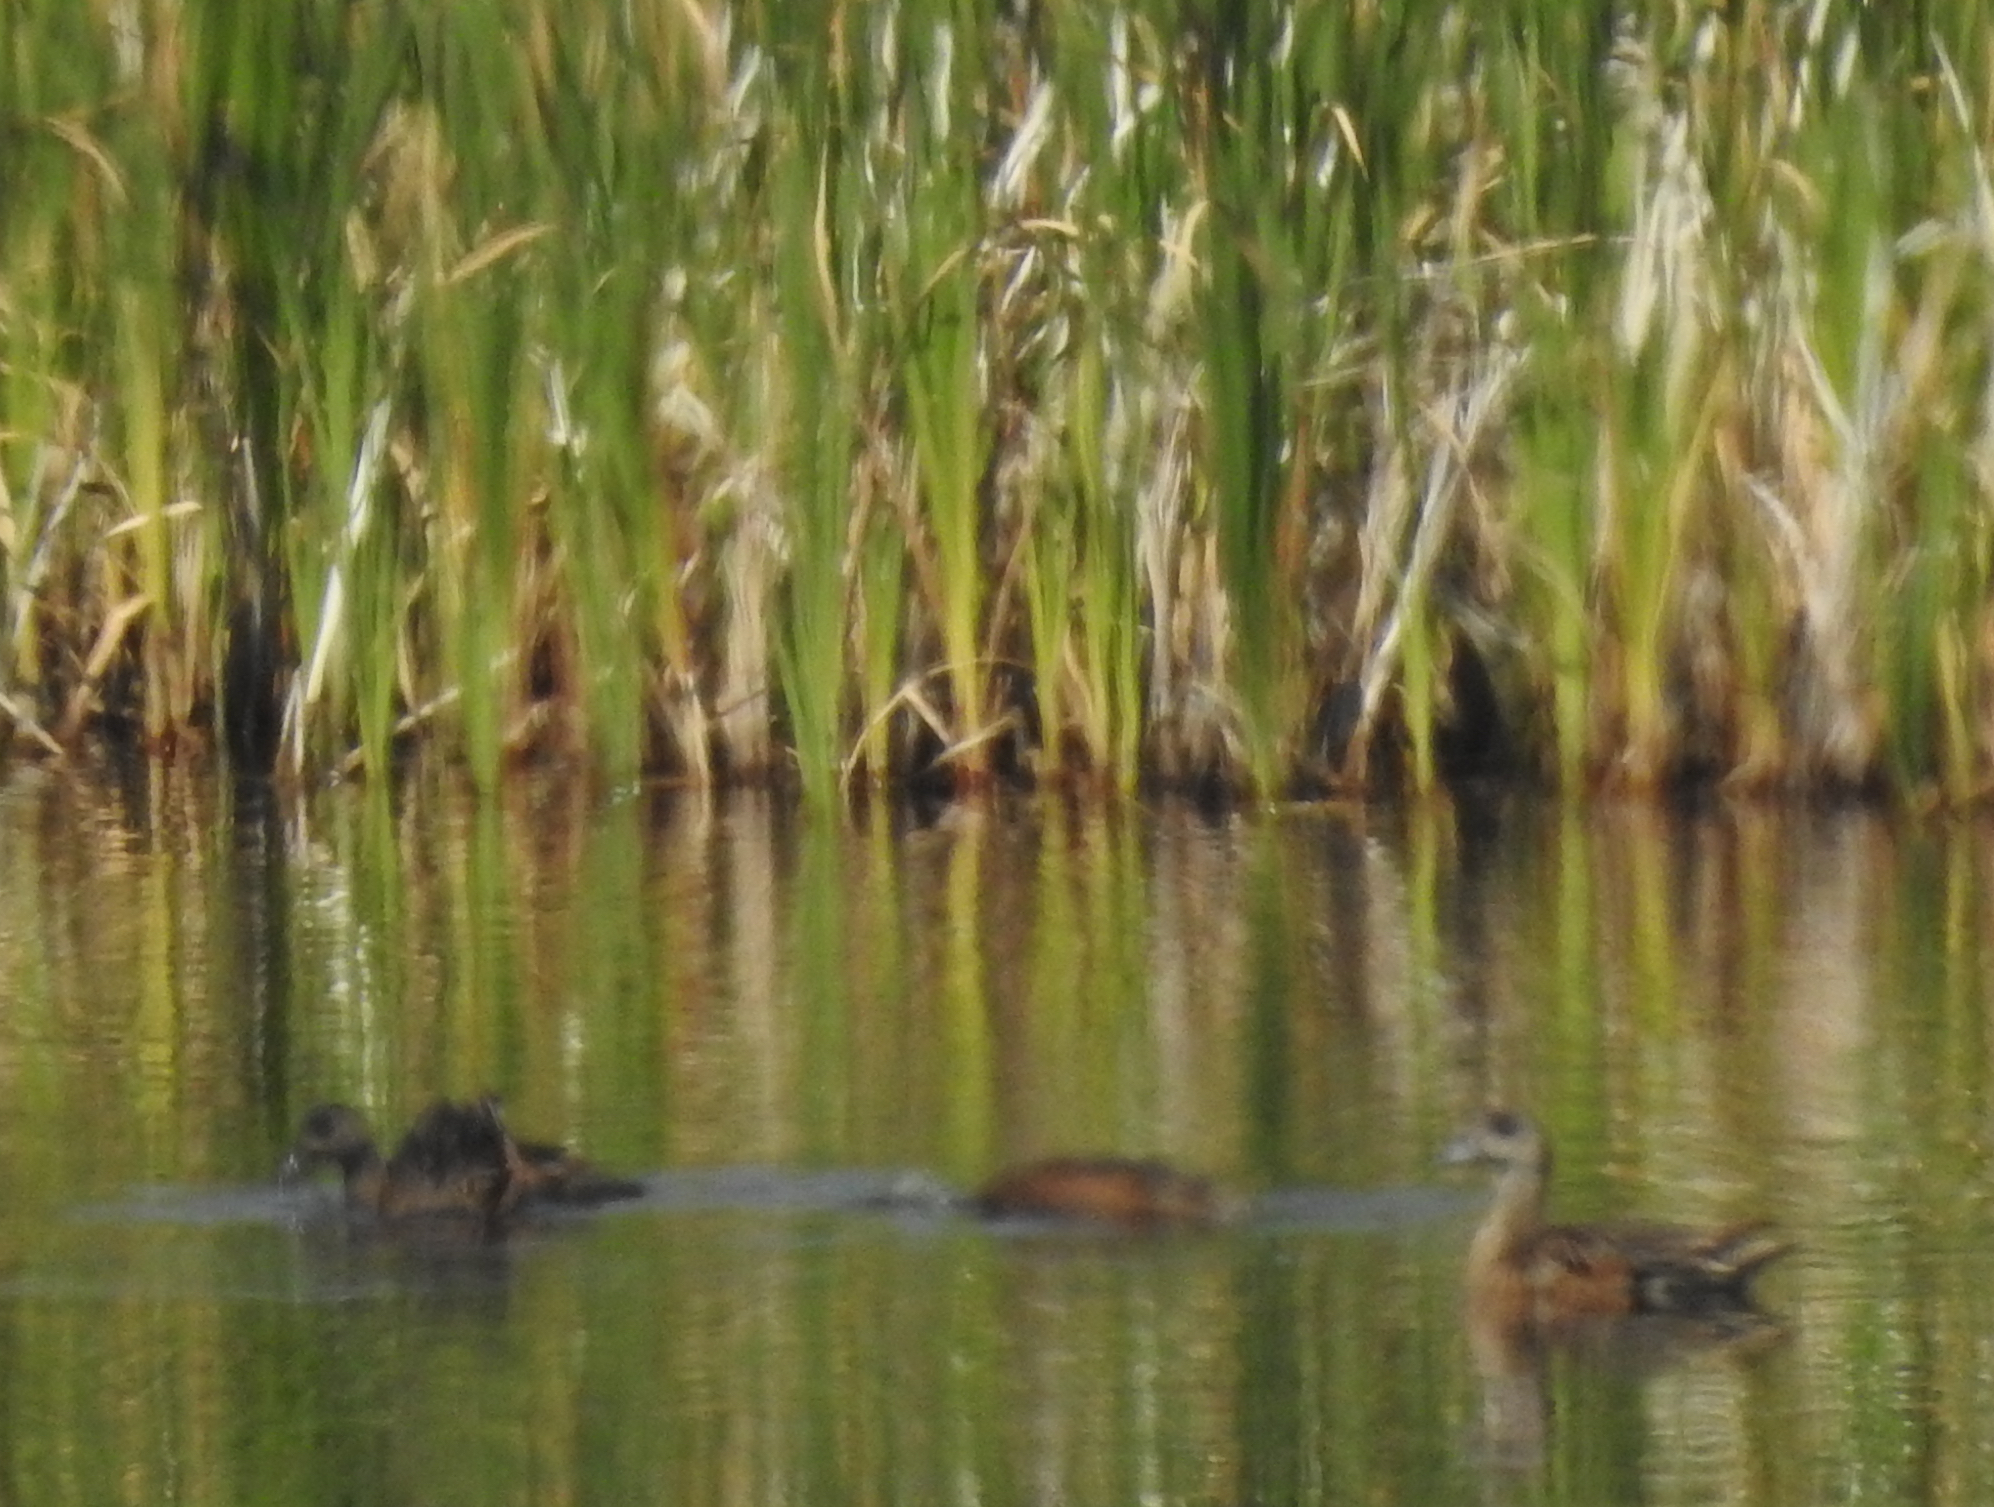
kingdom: Animalia
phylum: Chordata
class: Aves
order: Anseriformes
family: Anatidae
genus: Mareca
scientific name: Mareca americana
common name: American wigeon
